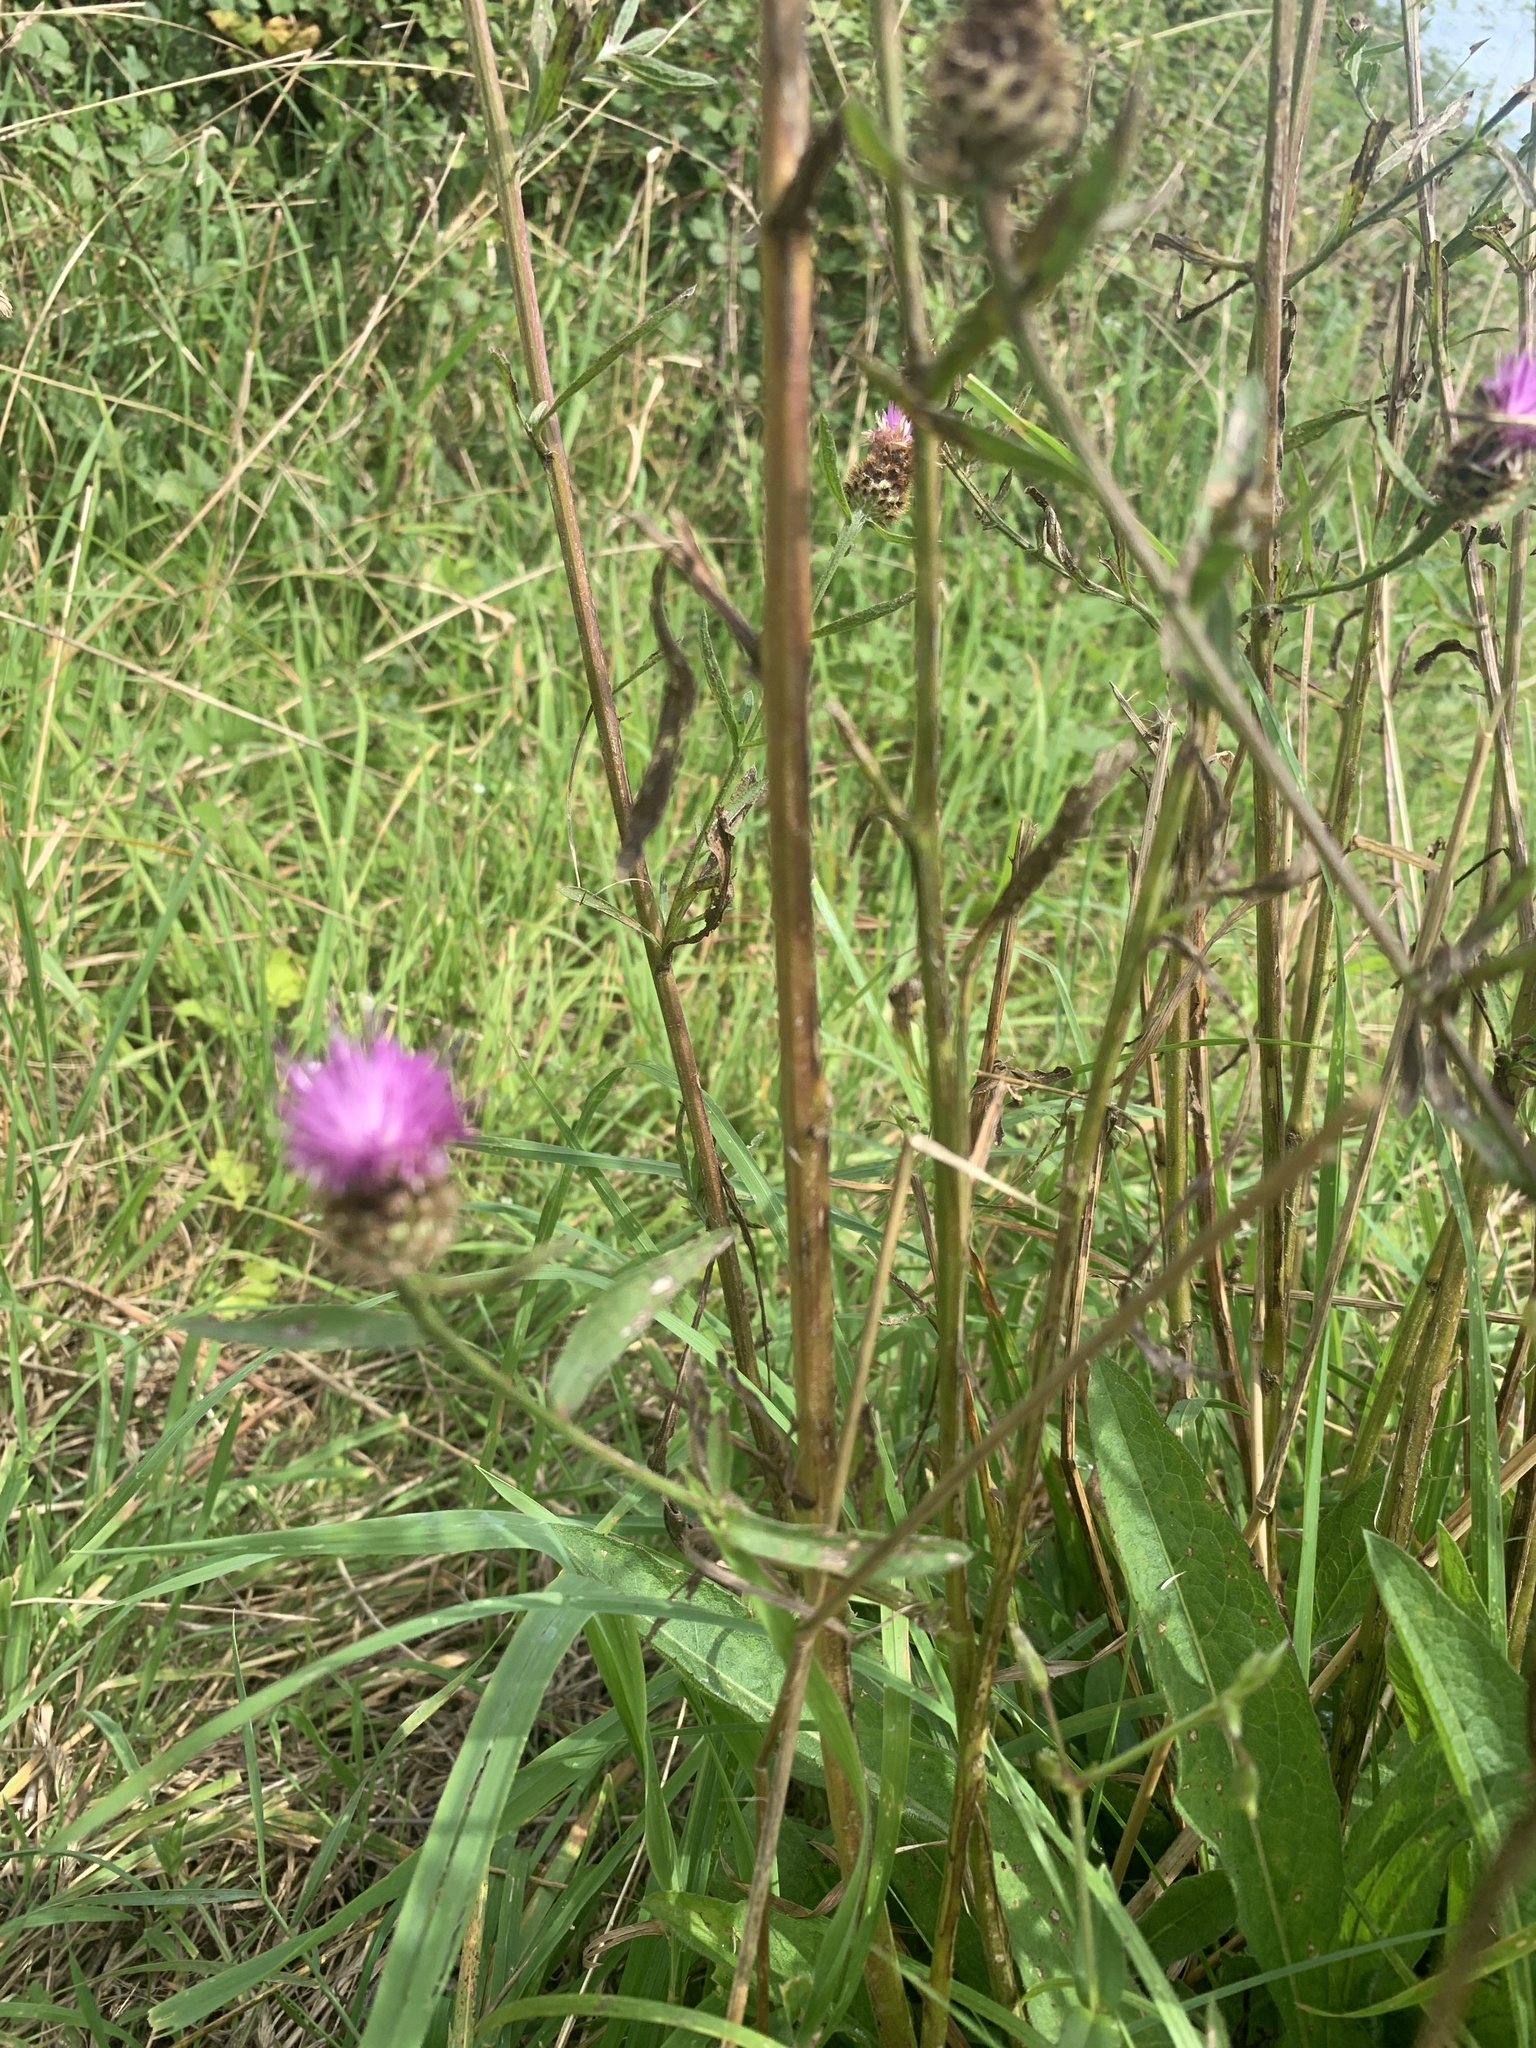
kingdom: Plantae
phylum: Tracheophyta
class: Magnoliopsida
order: Asterales
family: Asteraceae
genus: Centaurea
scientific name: Centaurea nigra
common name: Lesser knapweed
